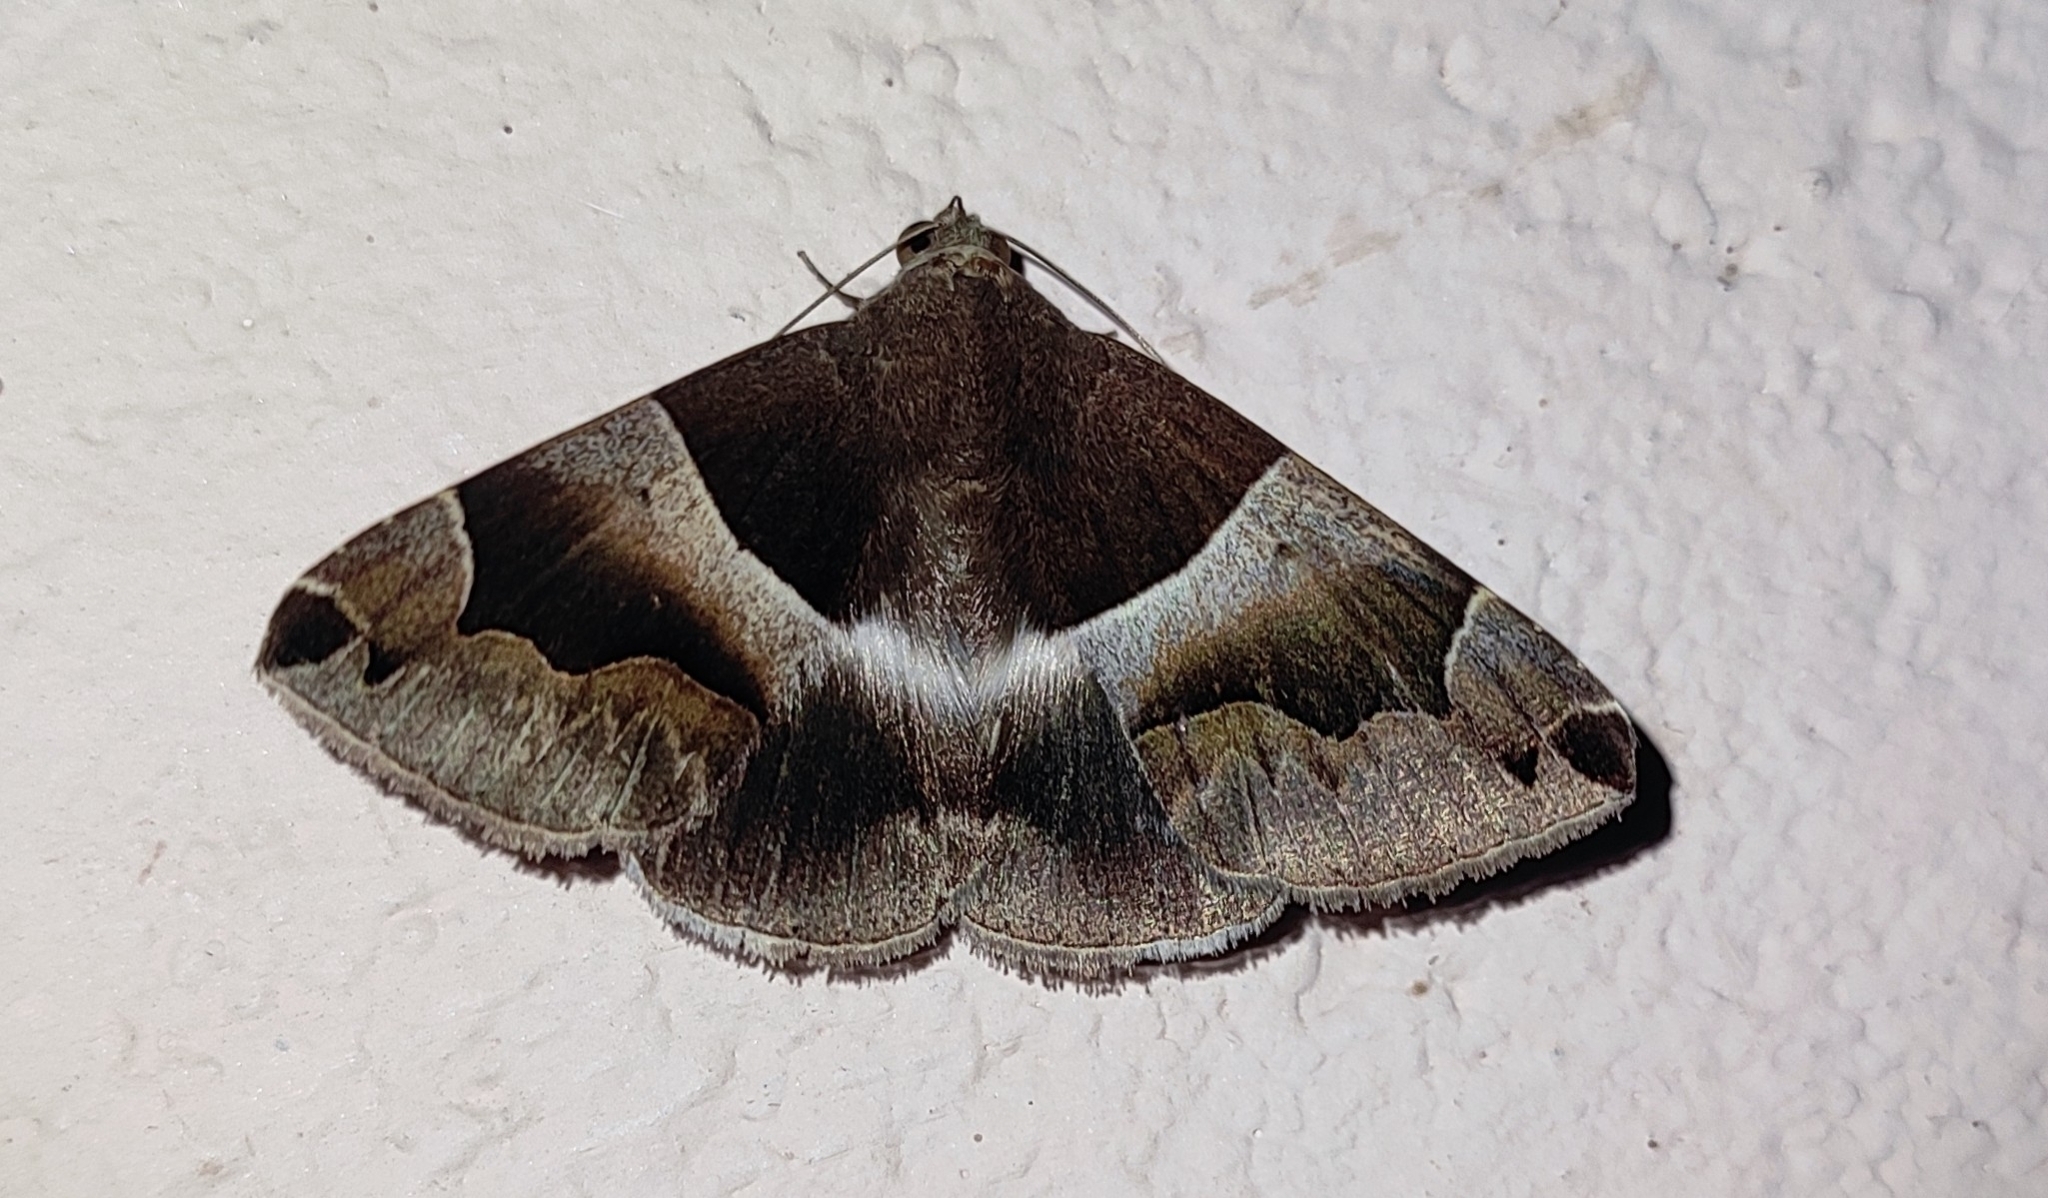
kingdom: Animalia
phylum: Arthropoda
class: Insecta
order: Lepidoptera
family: Erebidae
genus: Dysgonia
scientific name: Dysgonia stuposa
